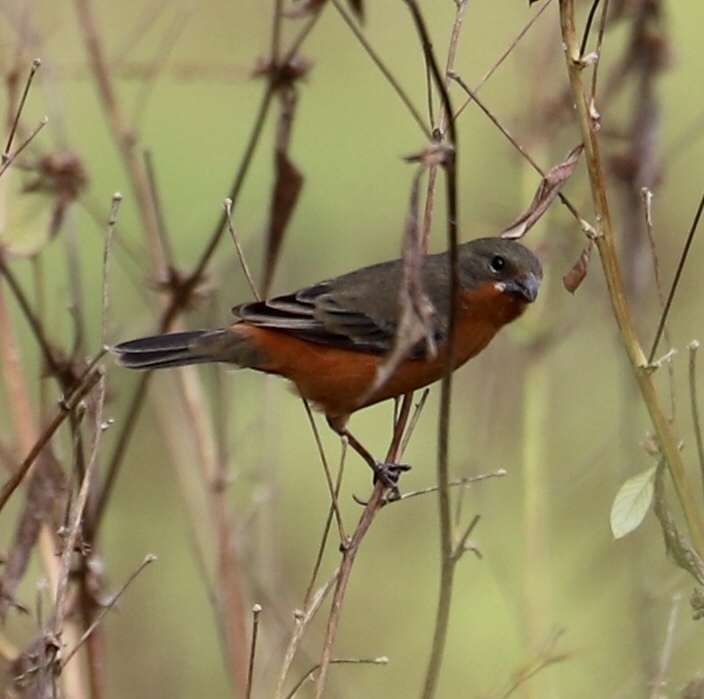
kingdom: Animalia
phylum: Chordata
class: Aves
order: Passeriformes
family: Thraupidae
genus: Sporophila
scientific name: Sporophila minuta
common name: Ruddy-breasted seedeater
